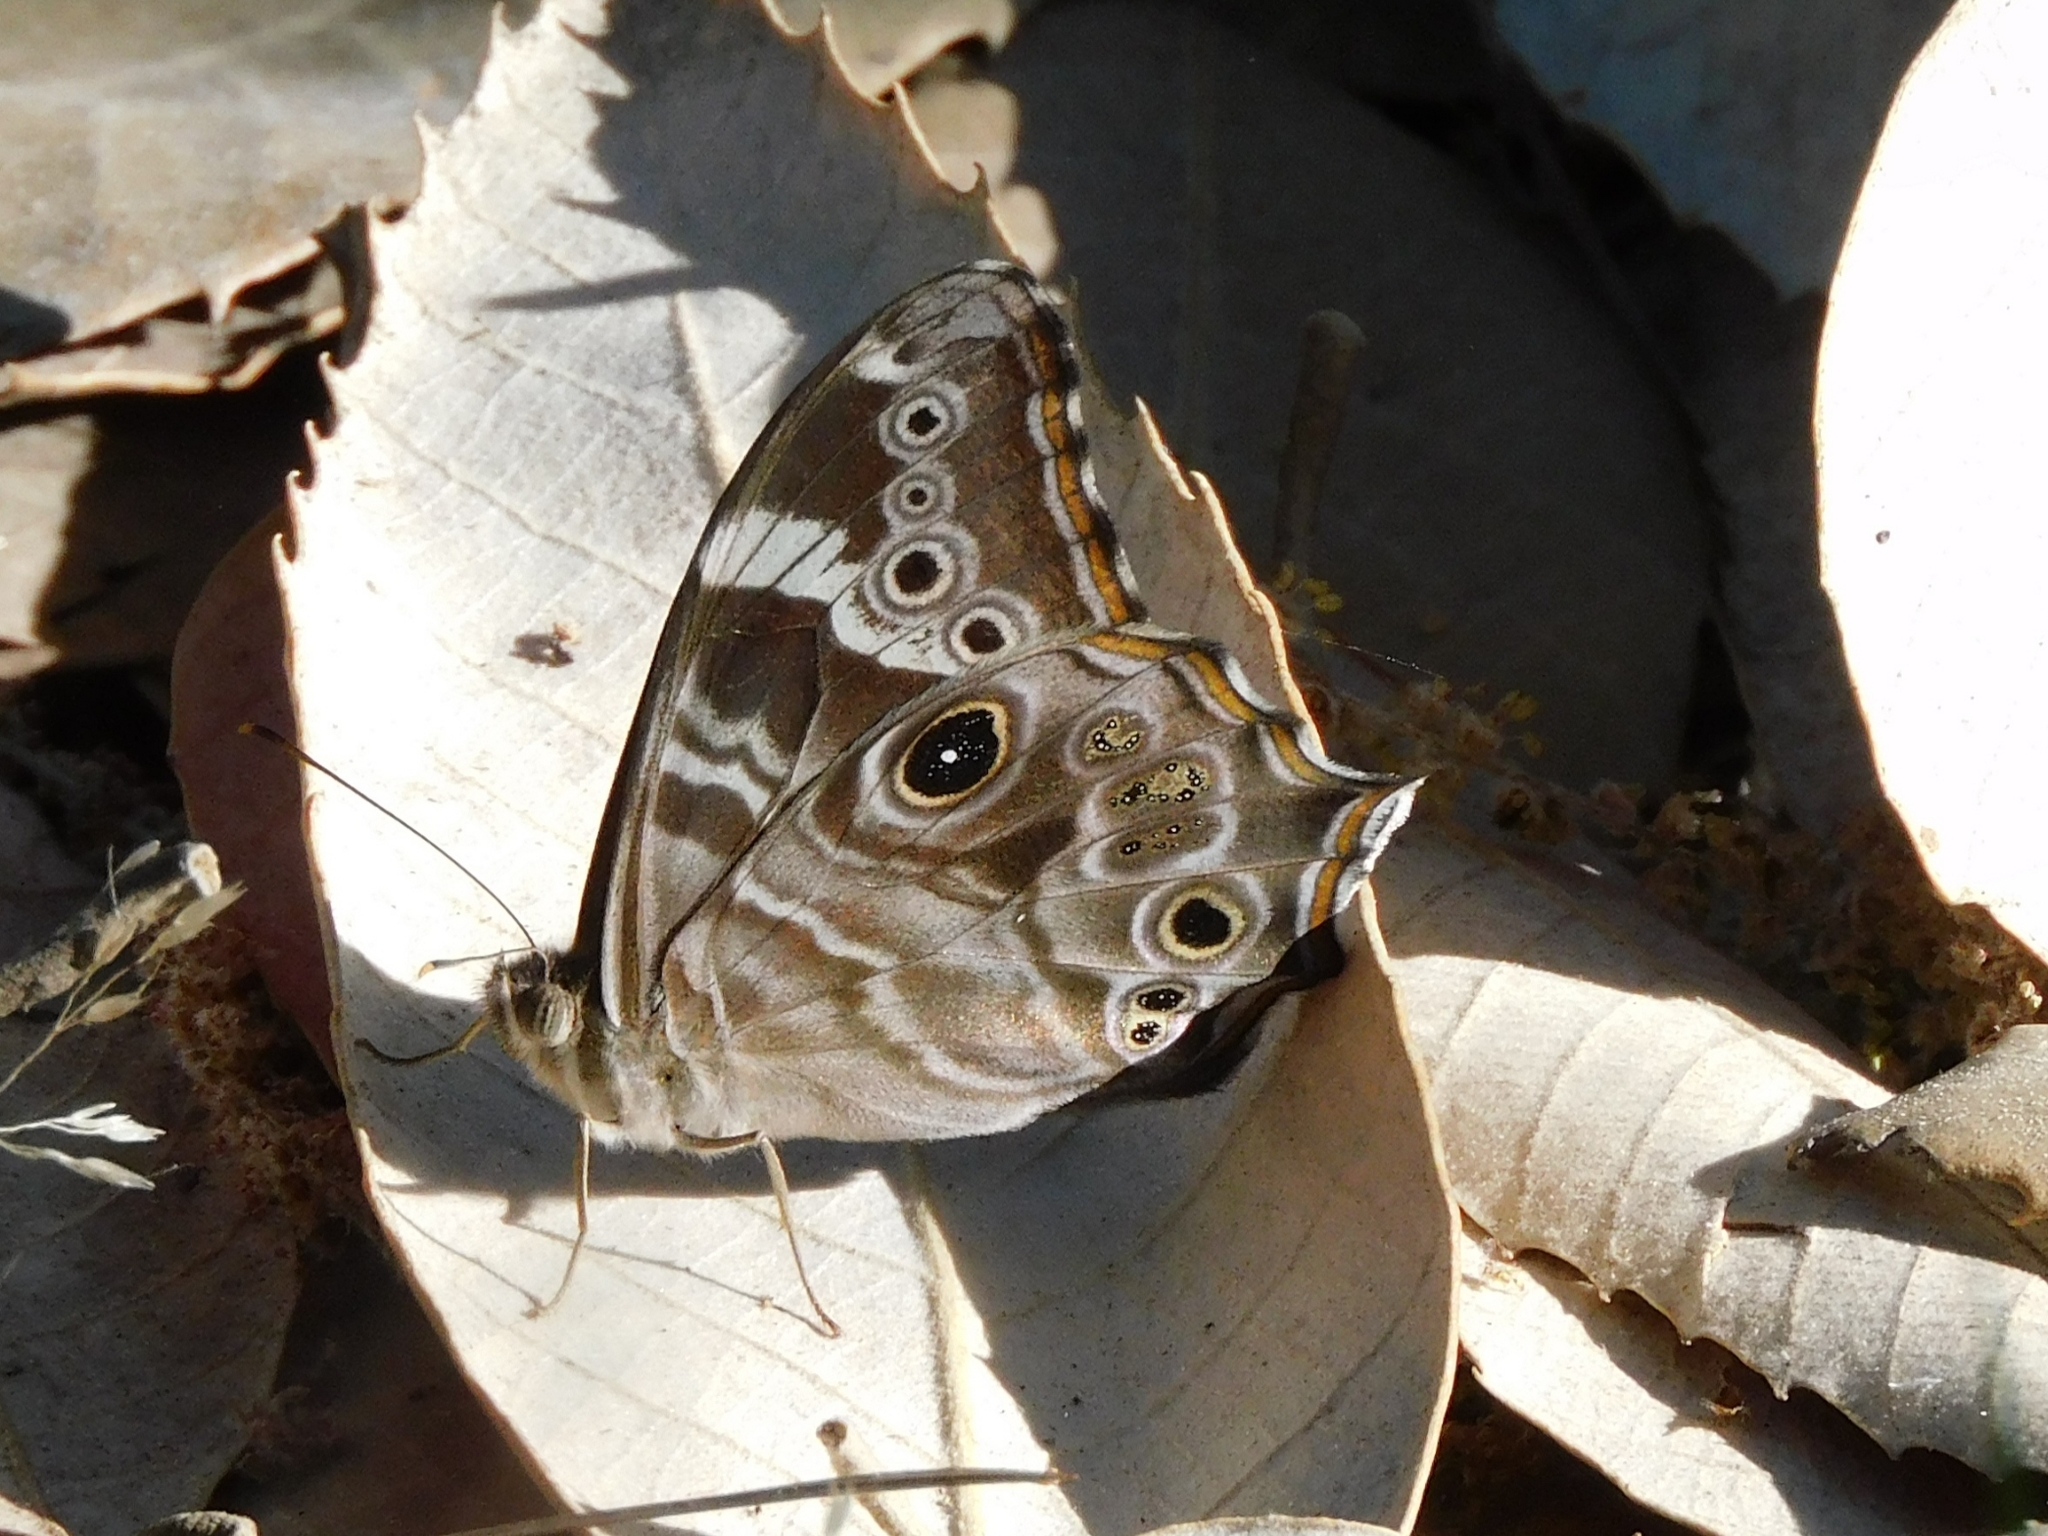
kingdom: Animalia
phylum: Arthropoda
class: Insecta
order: Lepidoptera
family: Nymphalidae
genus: Lethe
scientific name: Lethe rohria
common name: Common treebrown
